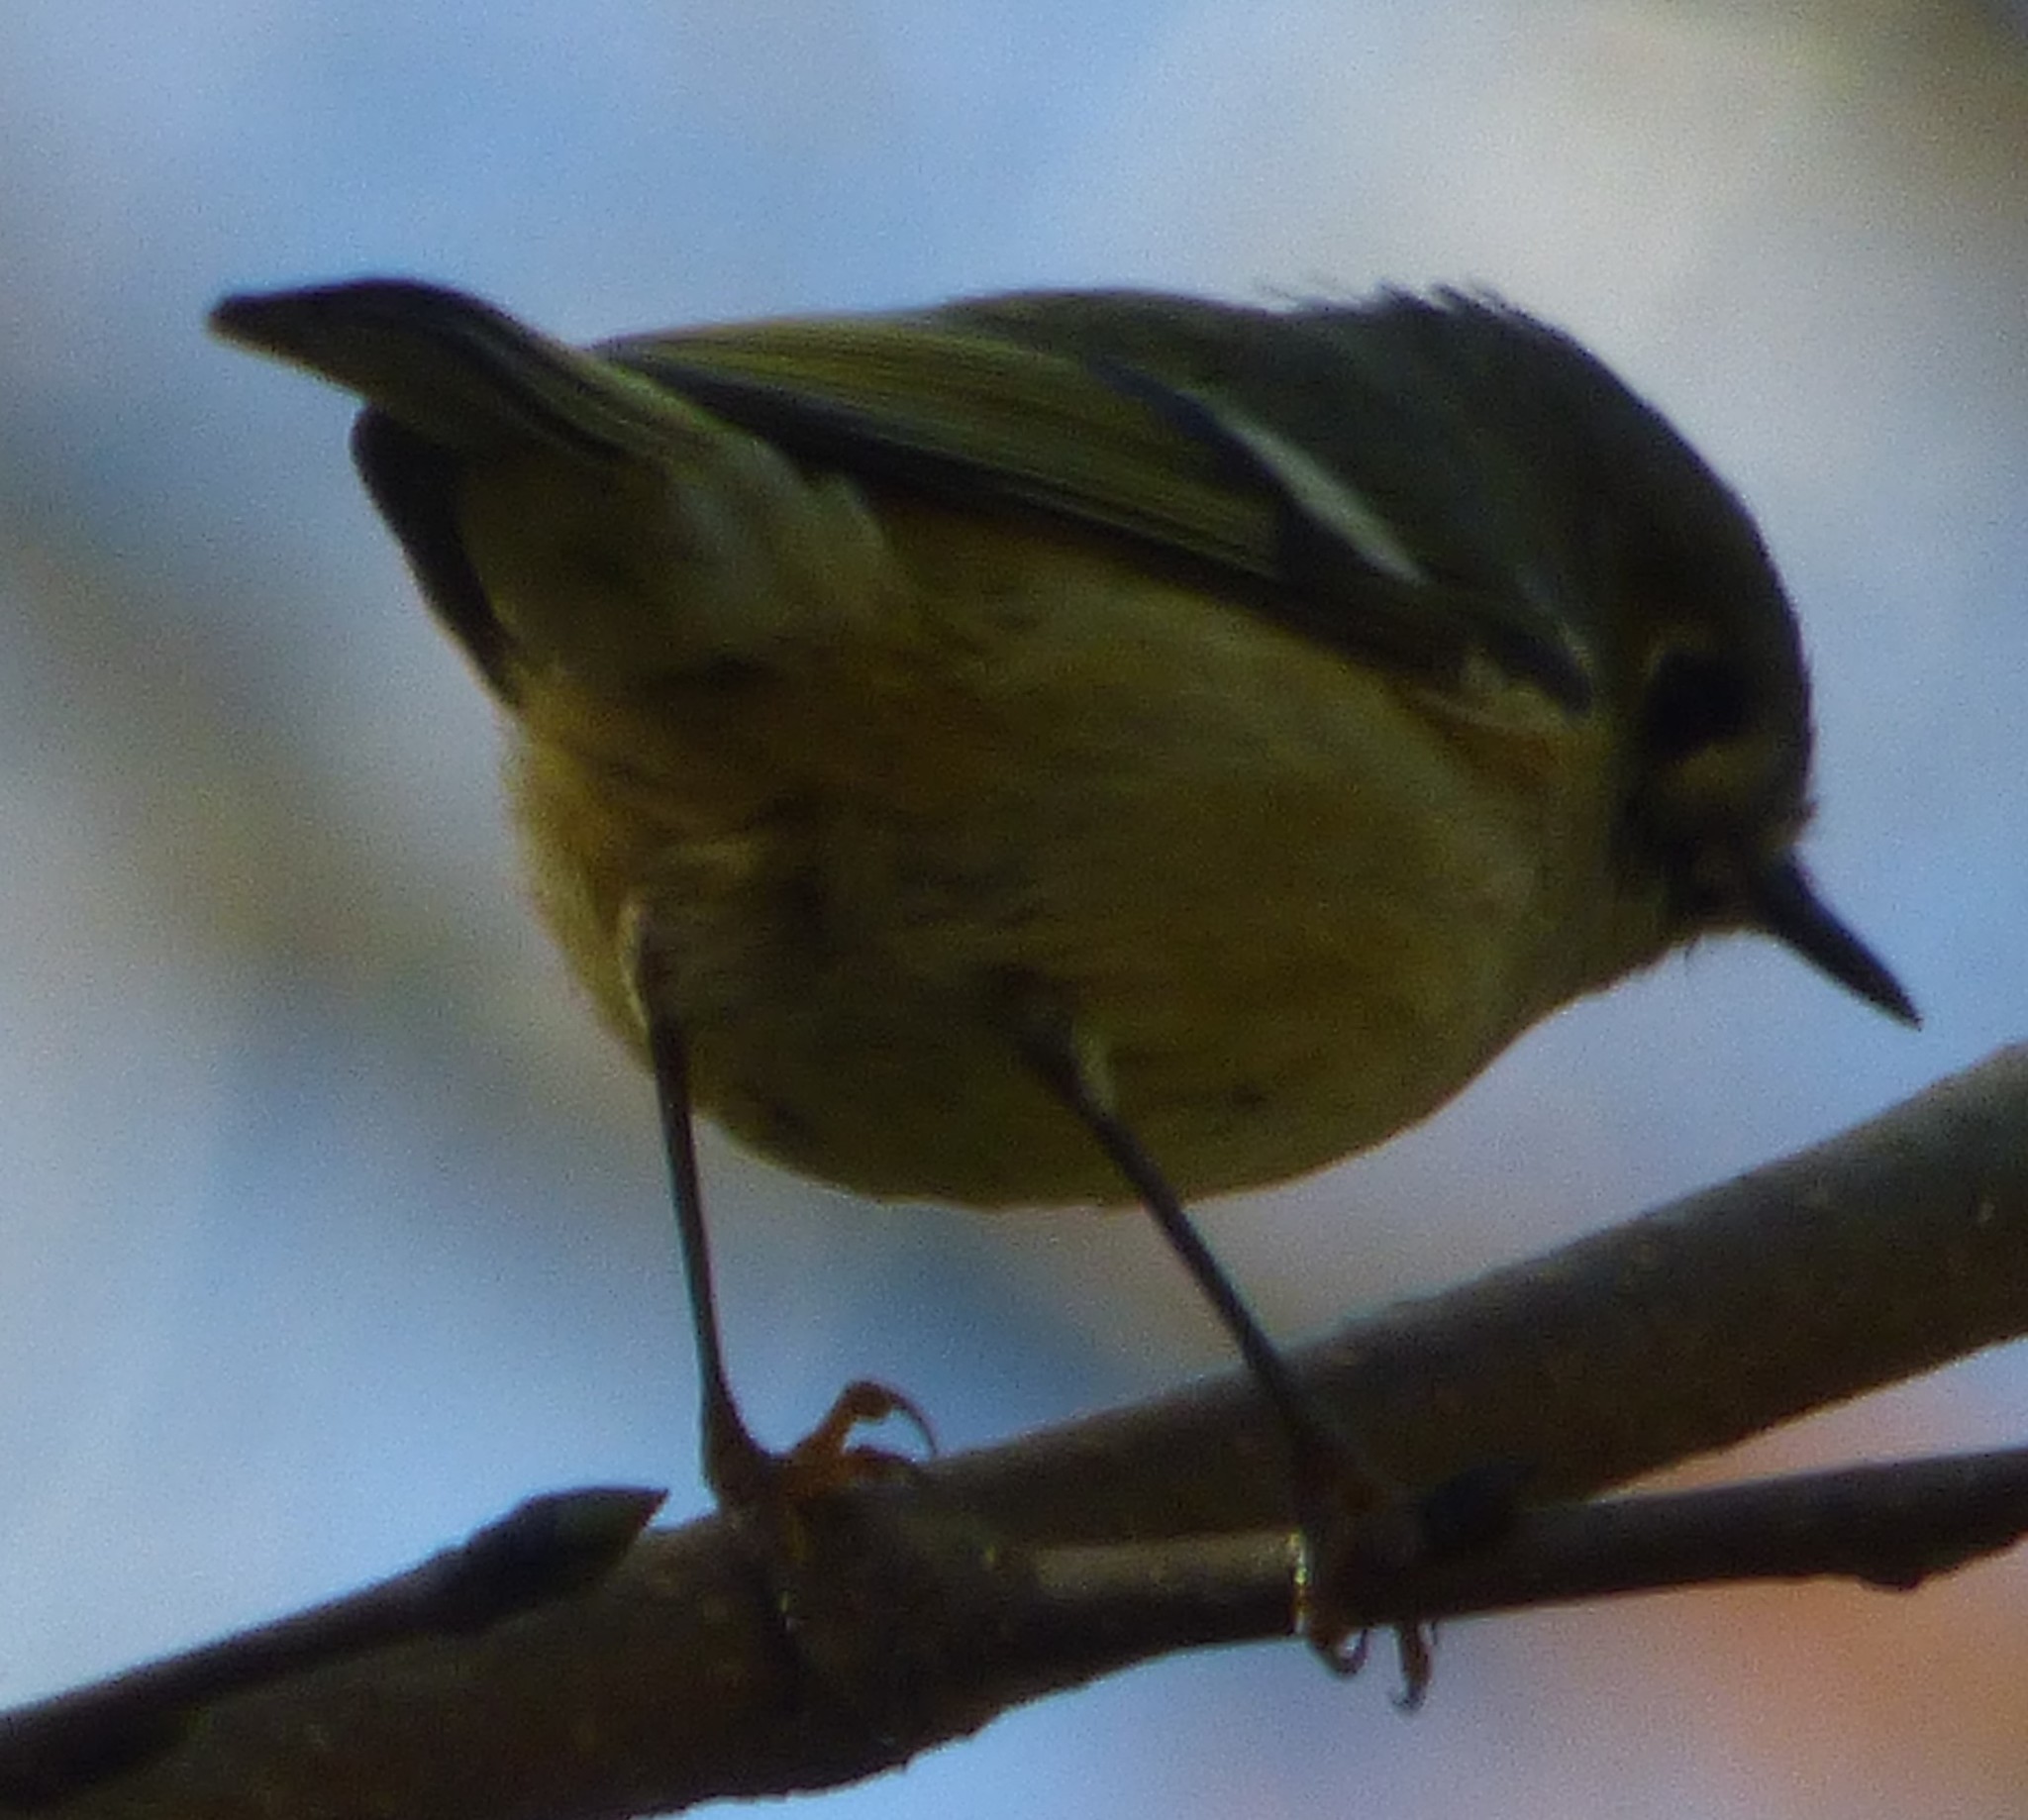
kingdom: Animalia
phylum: Chordata
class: Aves
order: Passeriformes
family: Regulidae
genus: Regulus
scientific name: Regulus calendula
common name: Ruby-crowned kinglet
